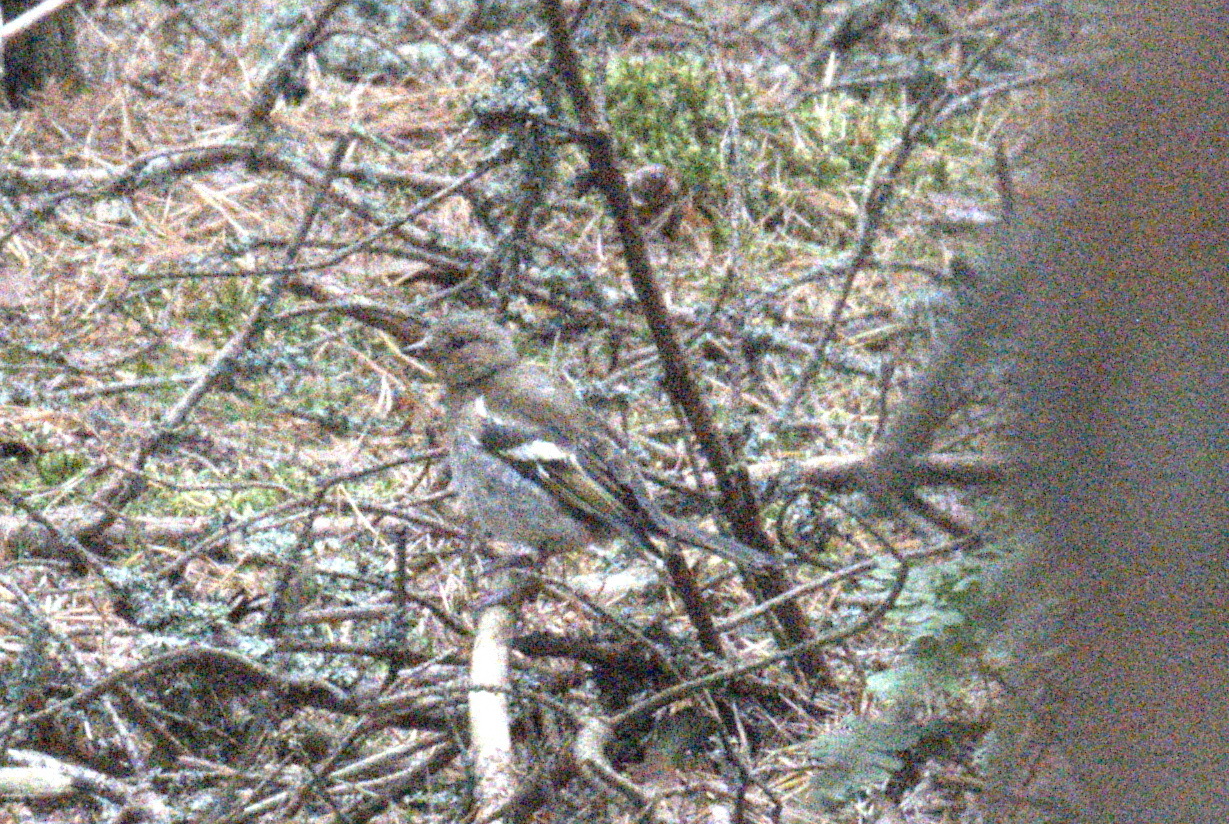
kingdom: Animalia
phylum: Chordata
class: Aves
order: Passeriformes
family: Fringillidae
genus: Fringilla
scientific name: Fringilla coelebs
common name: Common chaffinch
